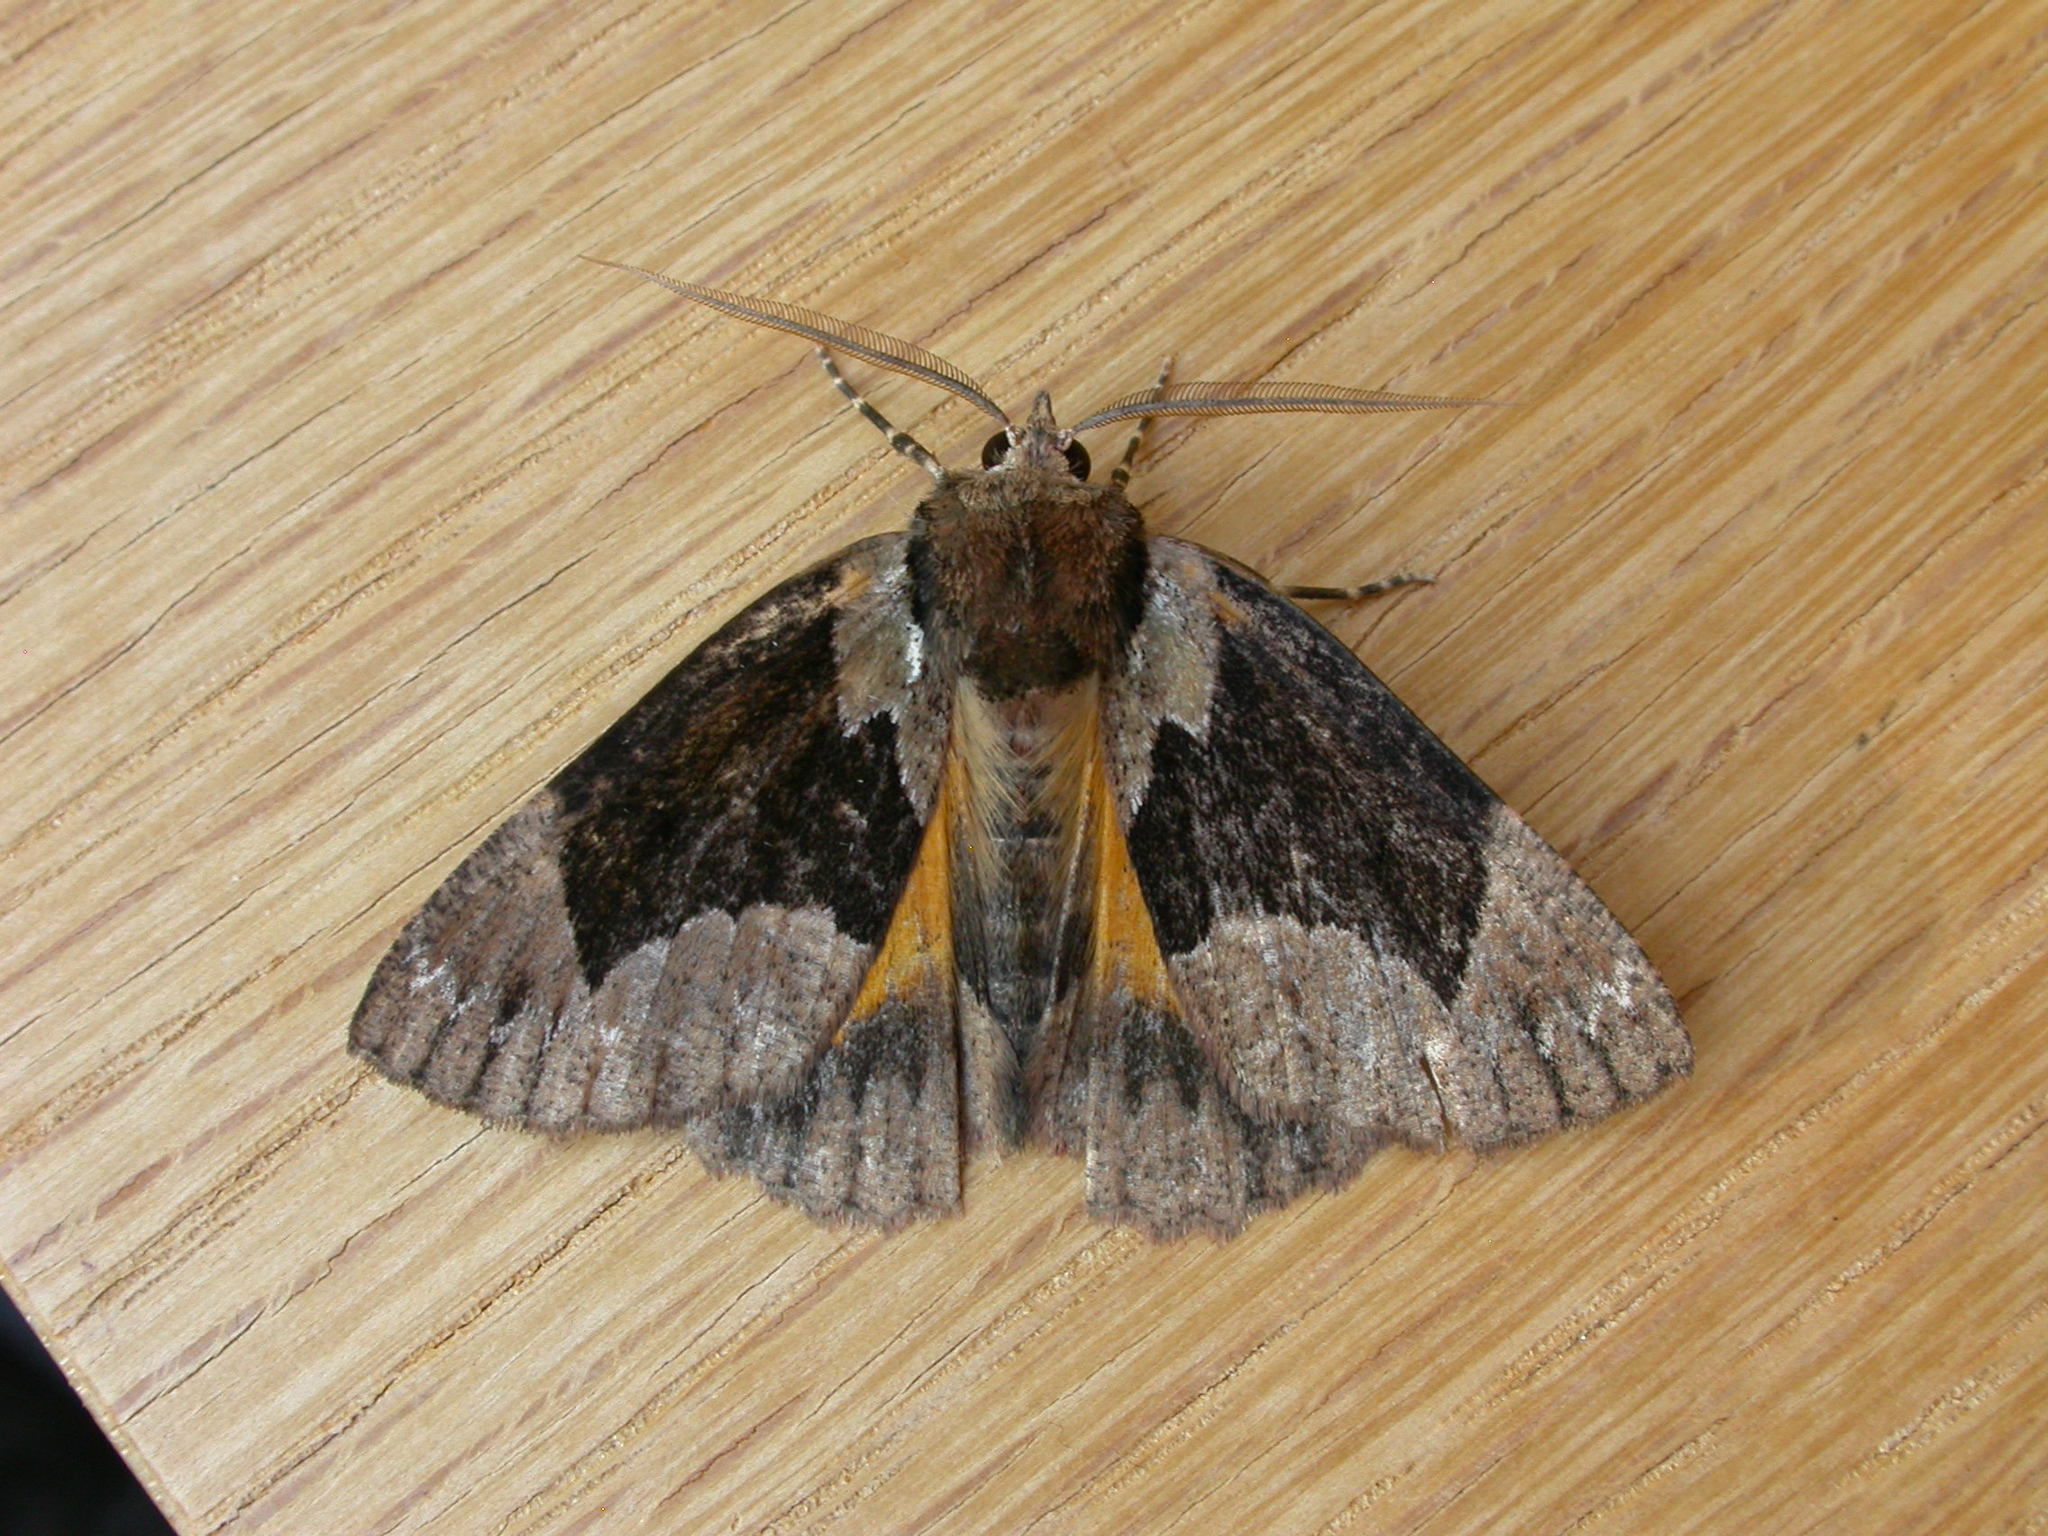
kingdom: Animalia
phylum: Arthropoda
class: Insecta
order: Lepidoptera
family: Geometridae
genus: Heliomystis
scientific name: Heliomystis electrica
